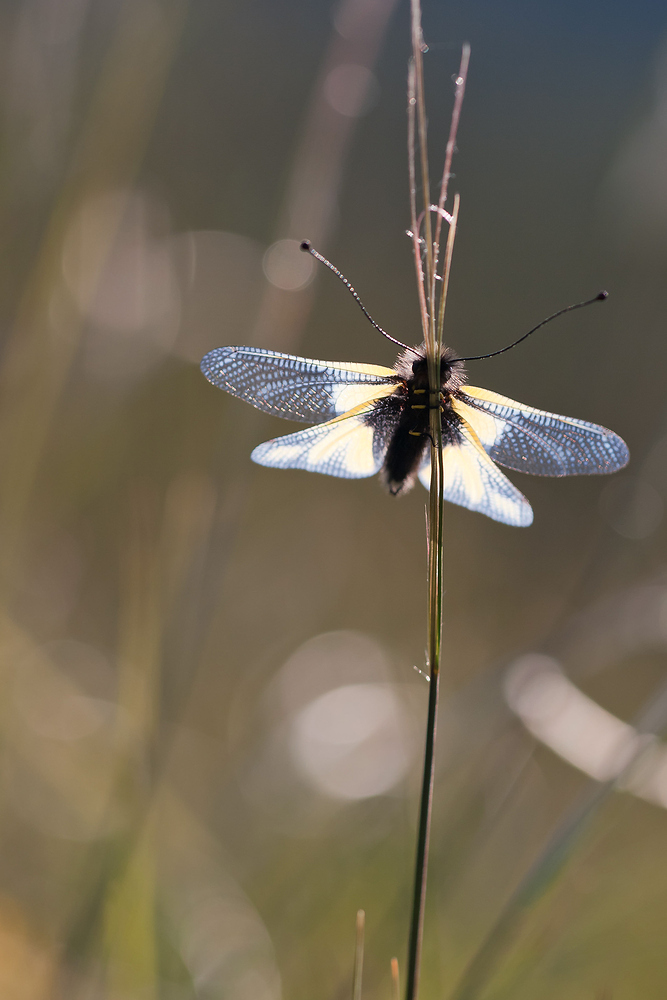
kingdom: Animalia
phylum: Arthropoda
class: Insecta
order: Neuroptera
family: Ascalaphidae
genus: Libelloides
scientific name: Libelloides coccajus
